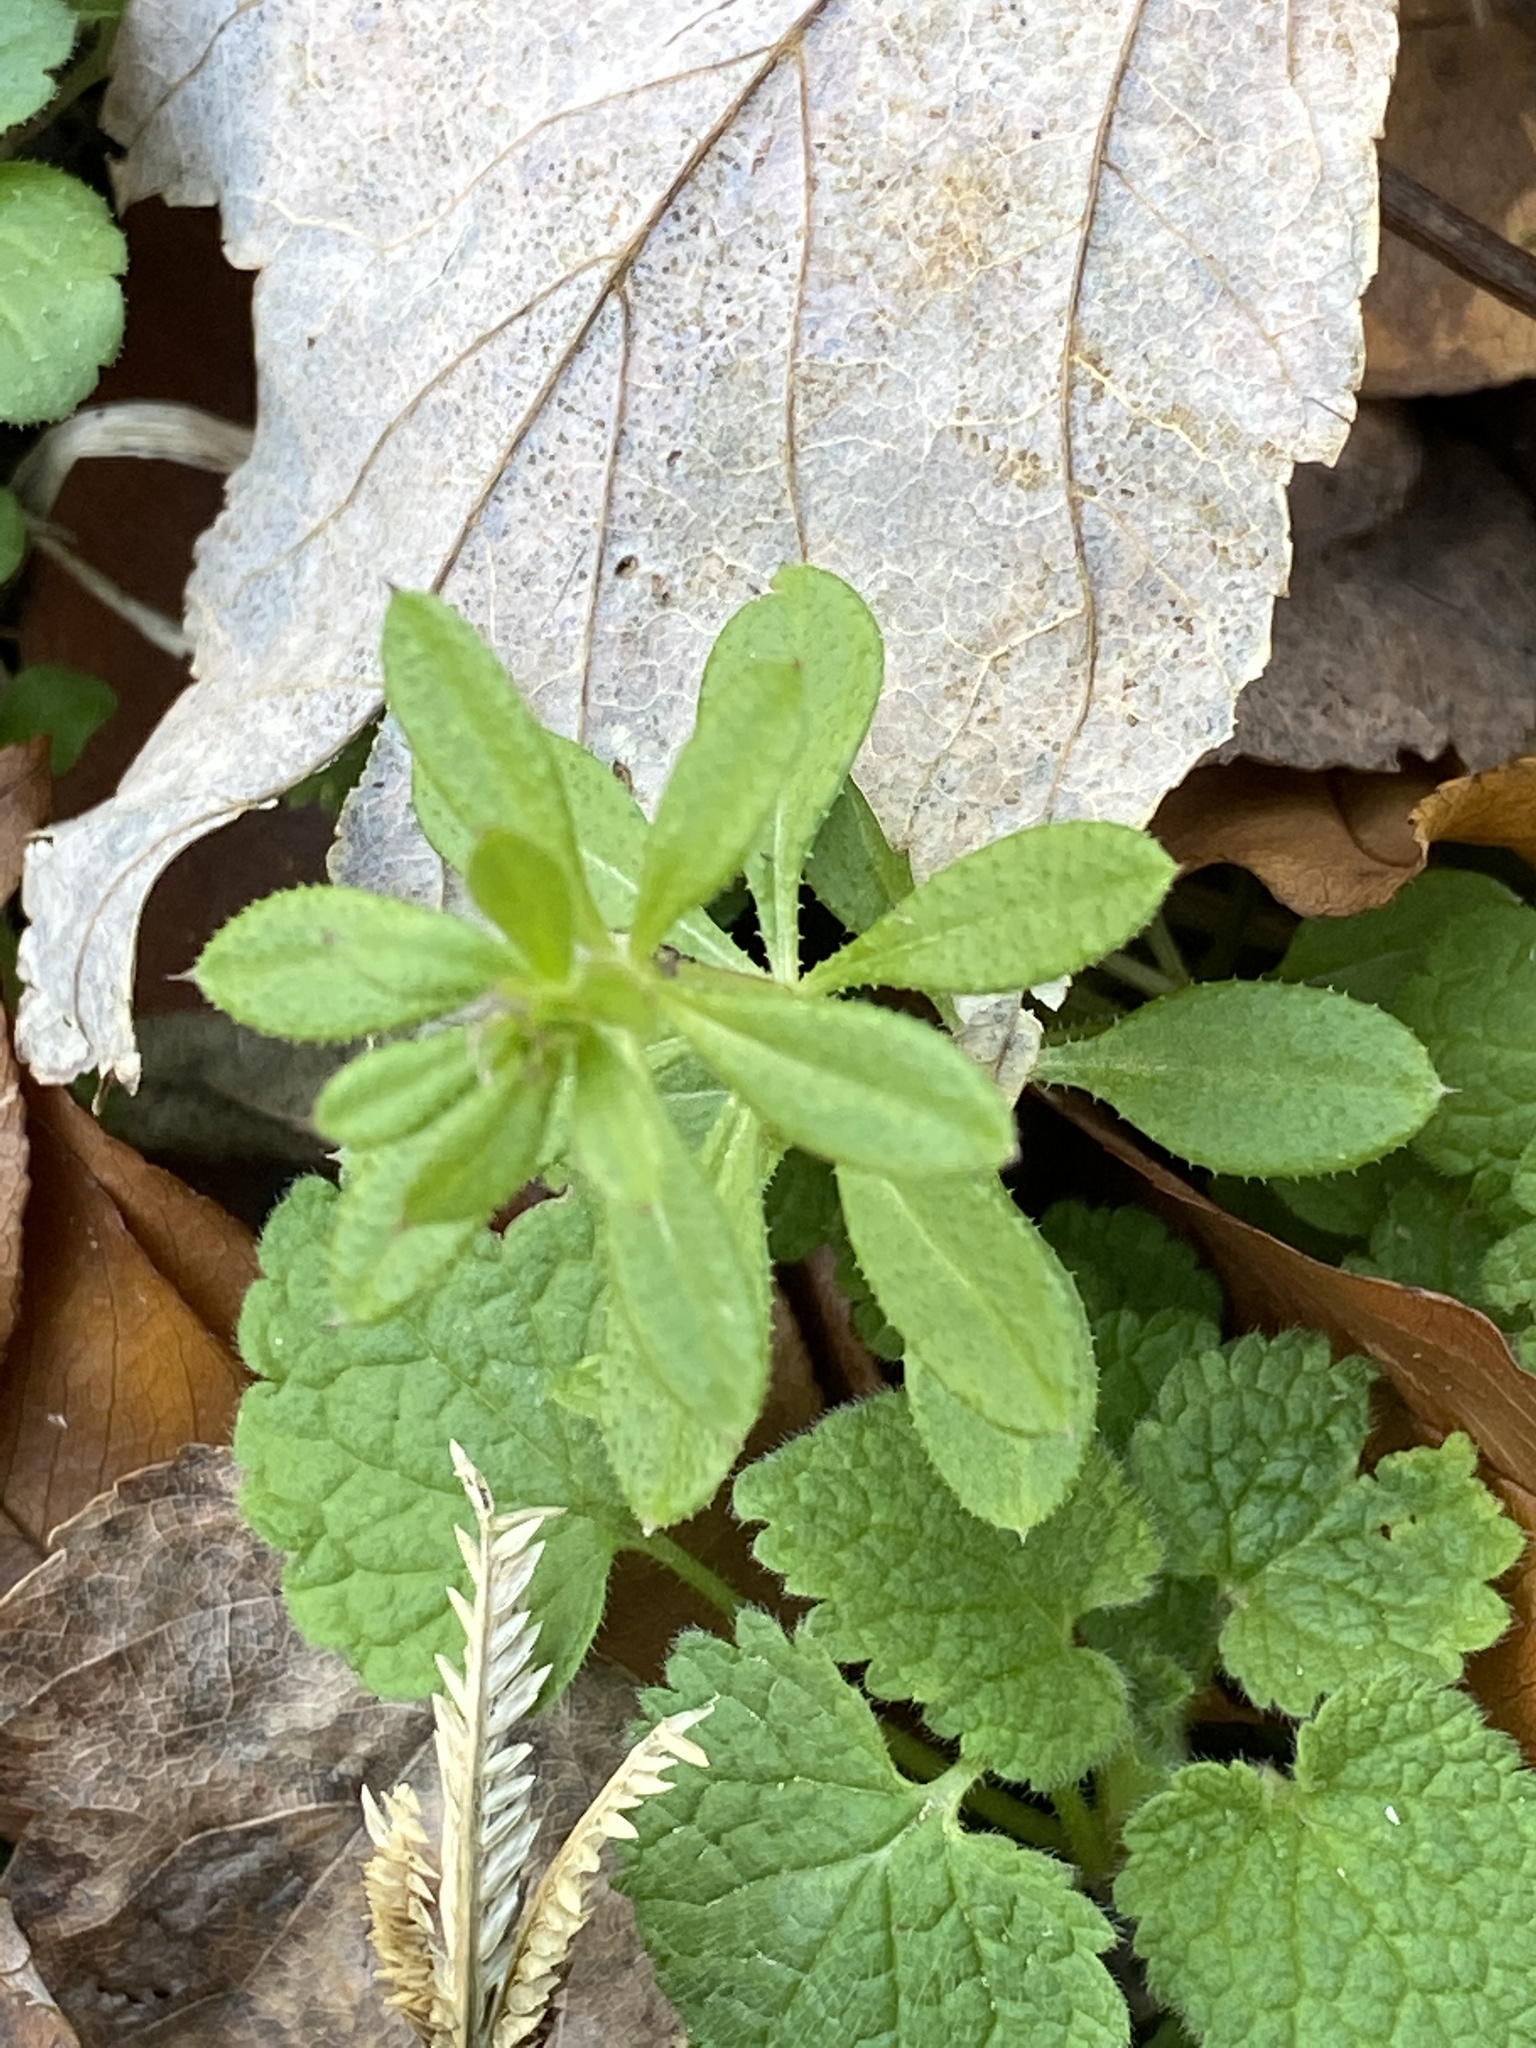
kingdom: Plantae
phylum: Tracheophyta
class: Magnoliopsida
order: Gentianales
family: Rubiaceae
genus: Galium
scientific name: Galium aparine
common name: Cleavers
